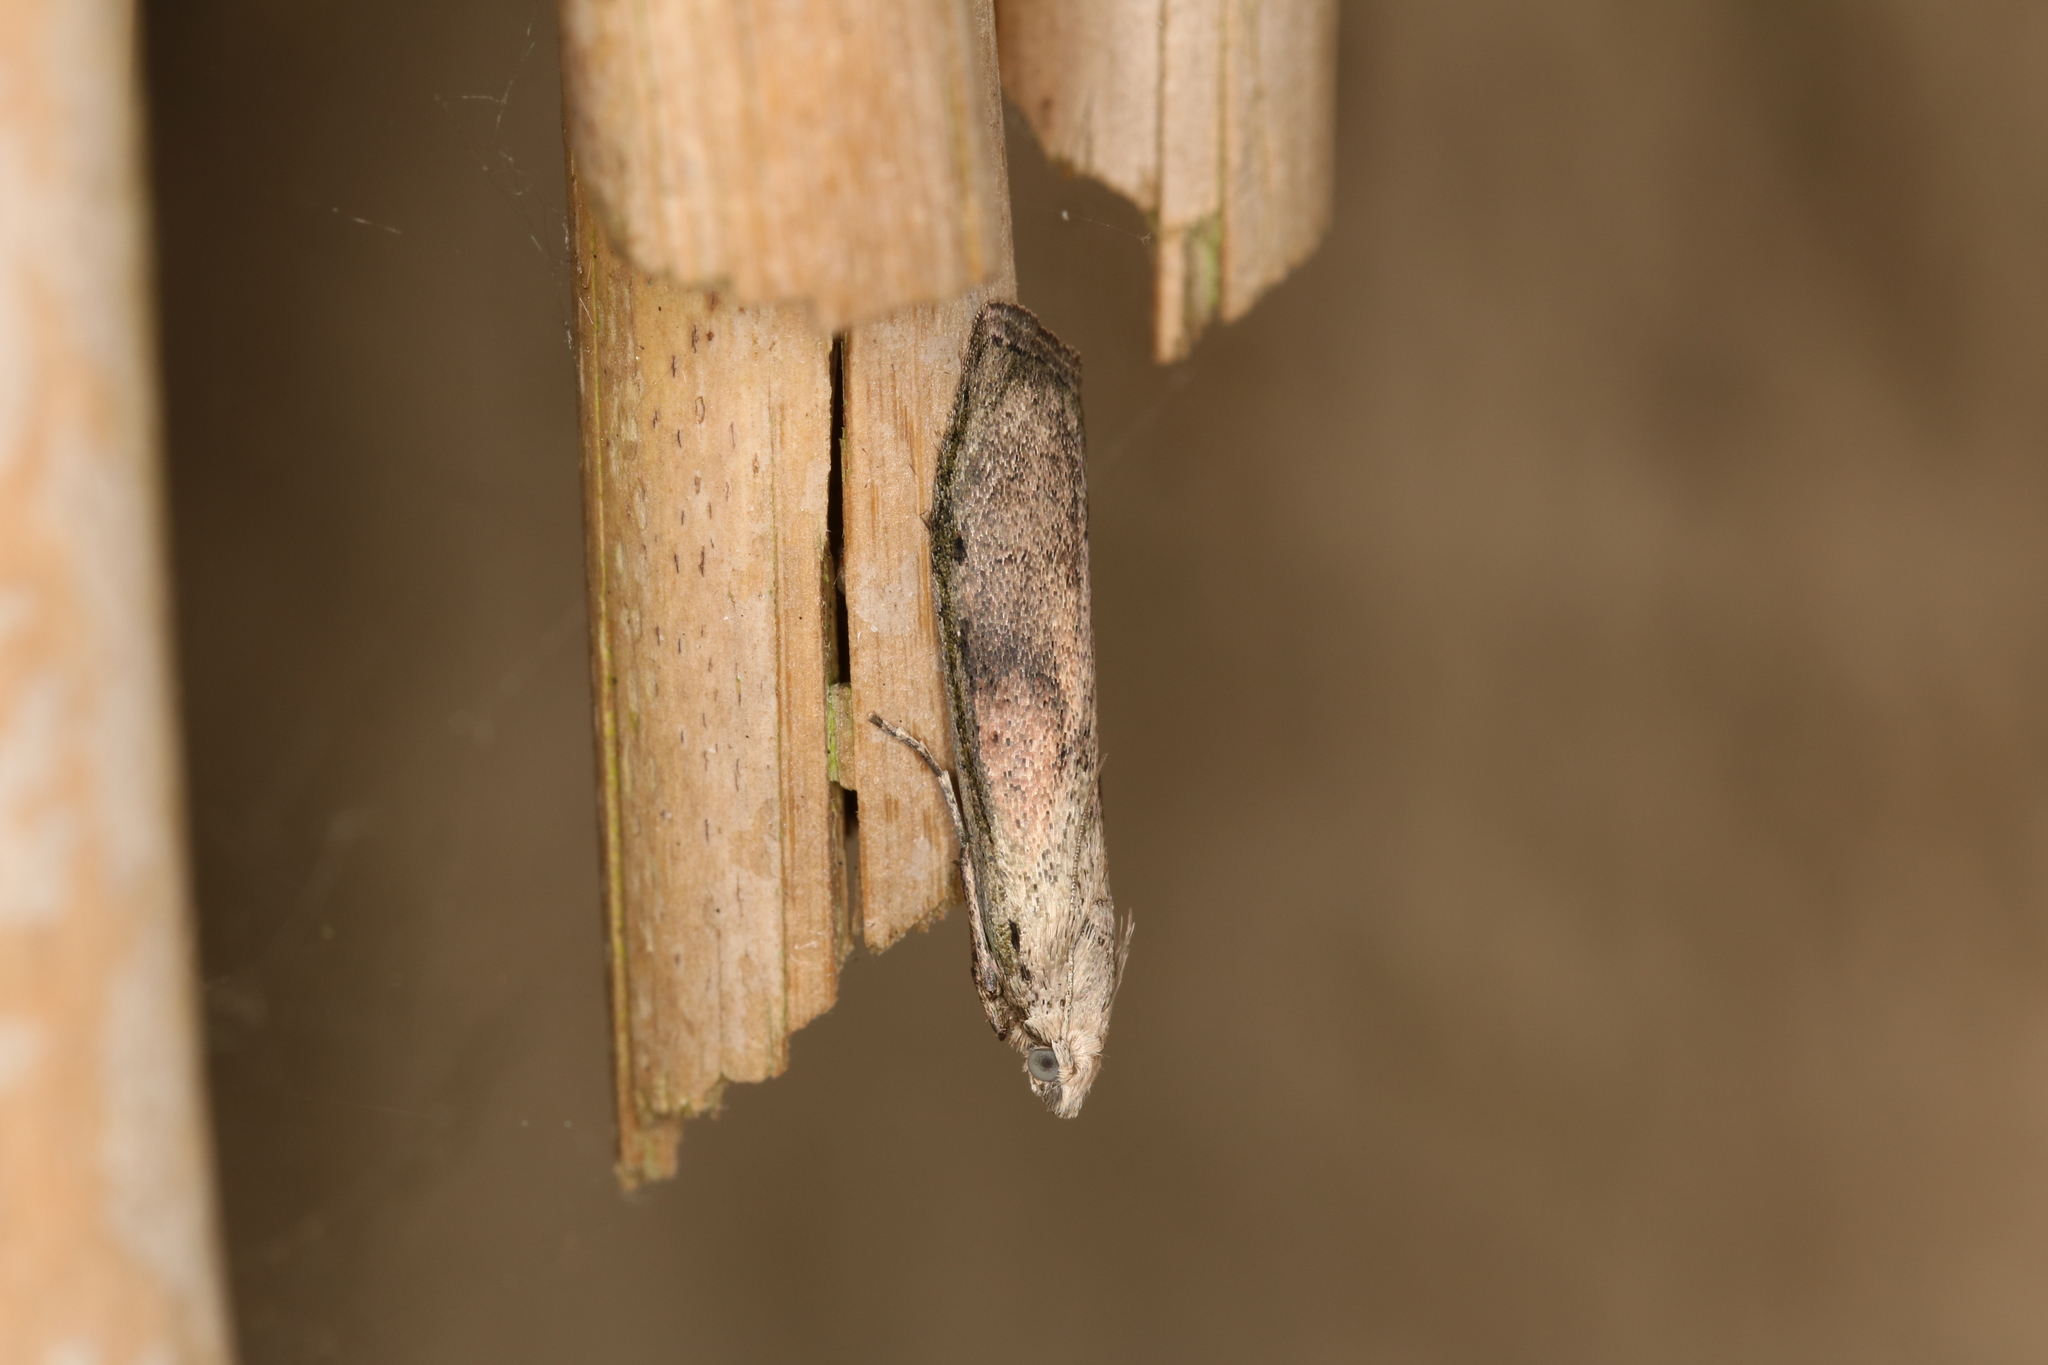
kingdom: Animalia
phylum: Arthropoda
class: Insecta
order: Lepidoptera
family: Pyralidae
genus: Aphomia
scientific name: Aphomia sociella
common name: Bee moth
